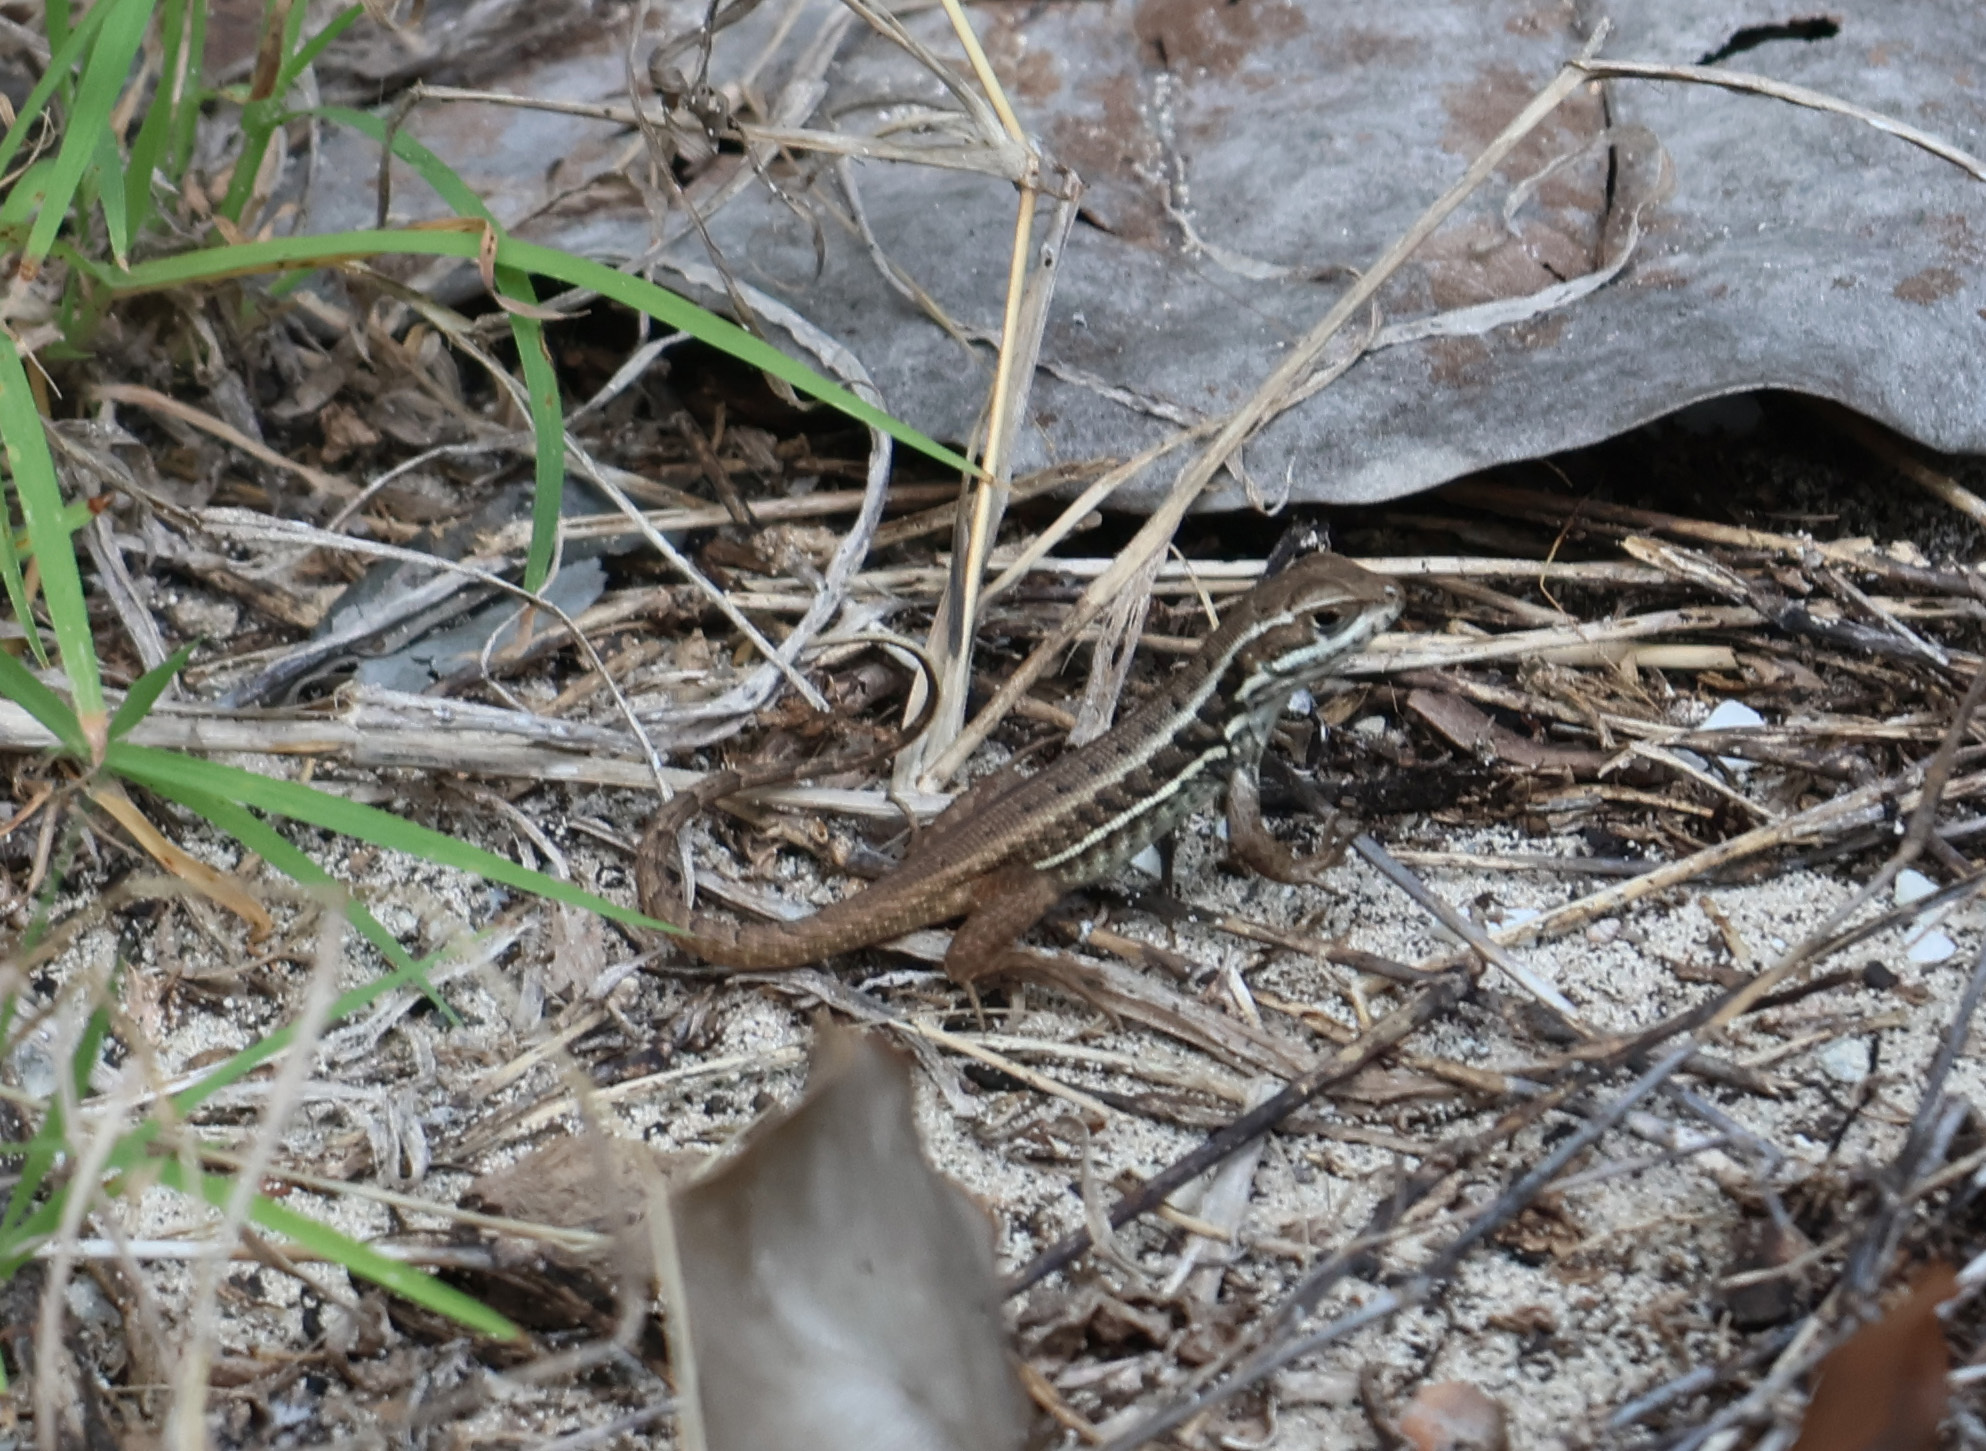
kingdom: Animalia
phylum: Chordata
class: Squamata
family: Leiocephalidae
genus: Leiocephalus
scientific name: Leiocephalus cubensis
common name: Cuban curlytail lizard
